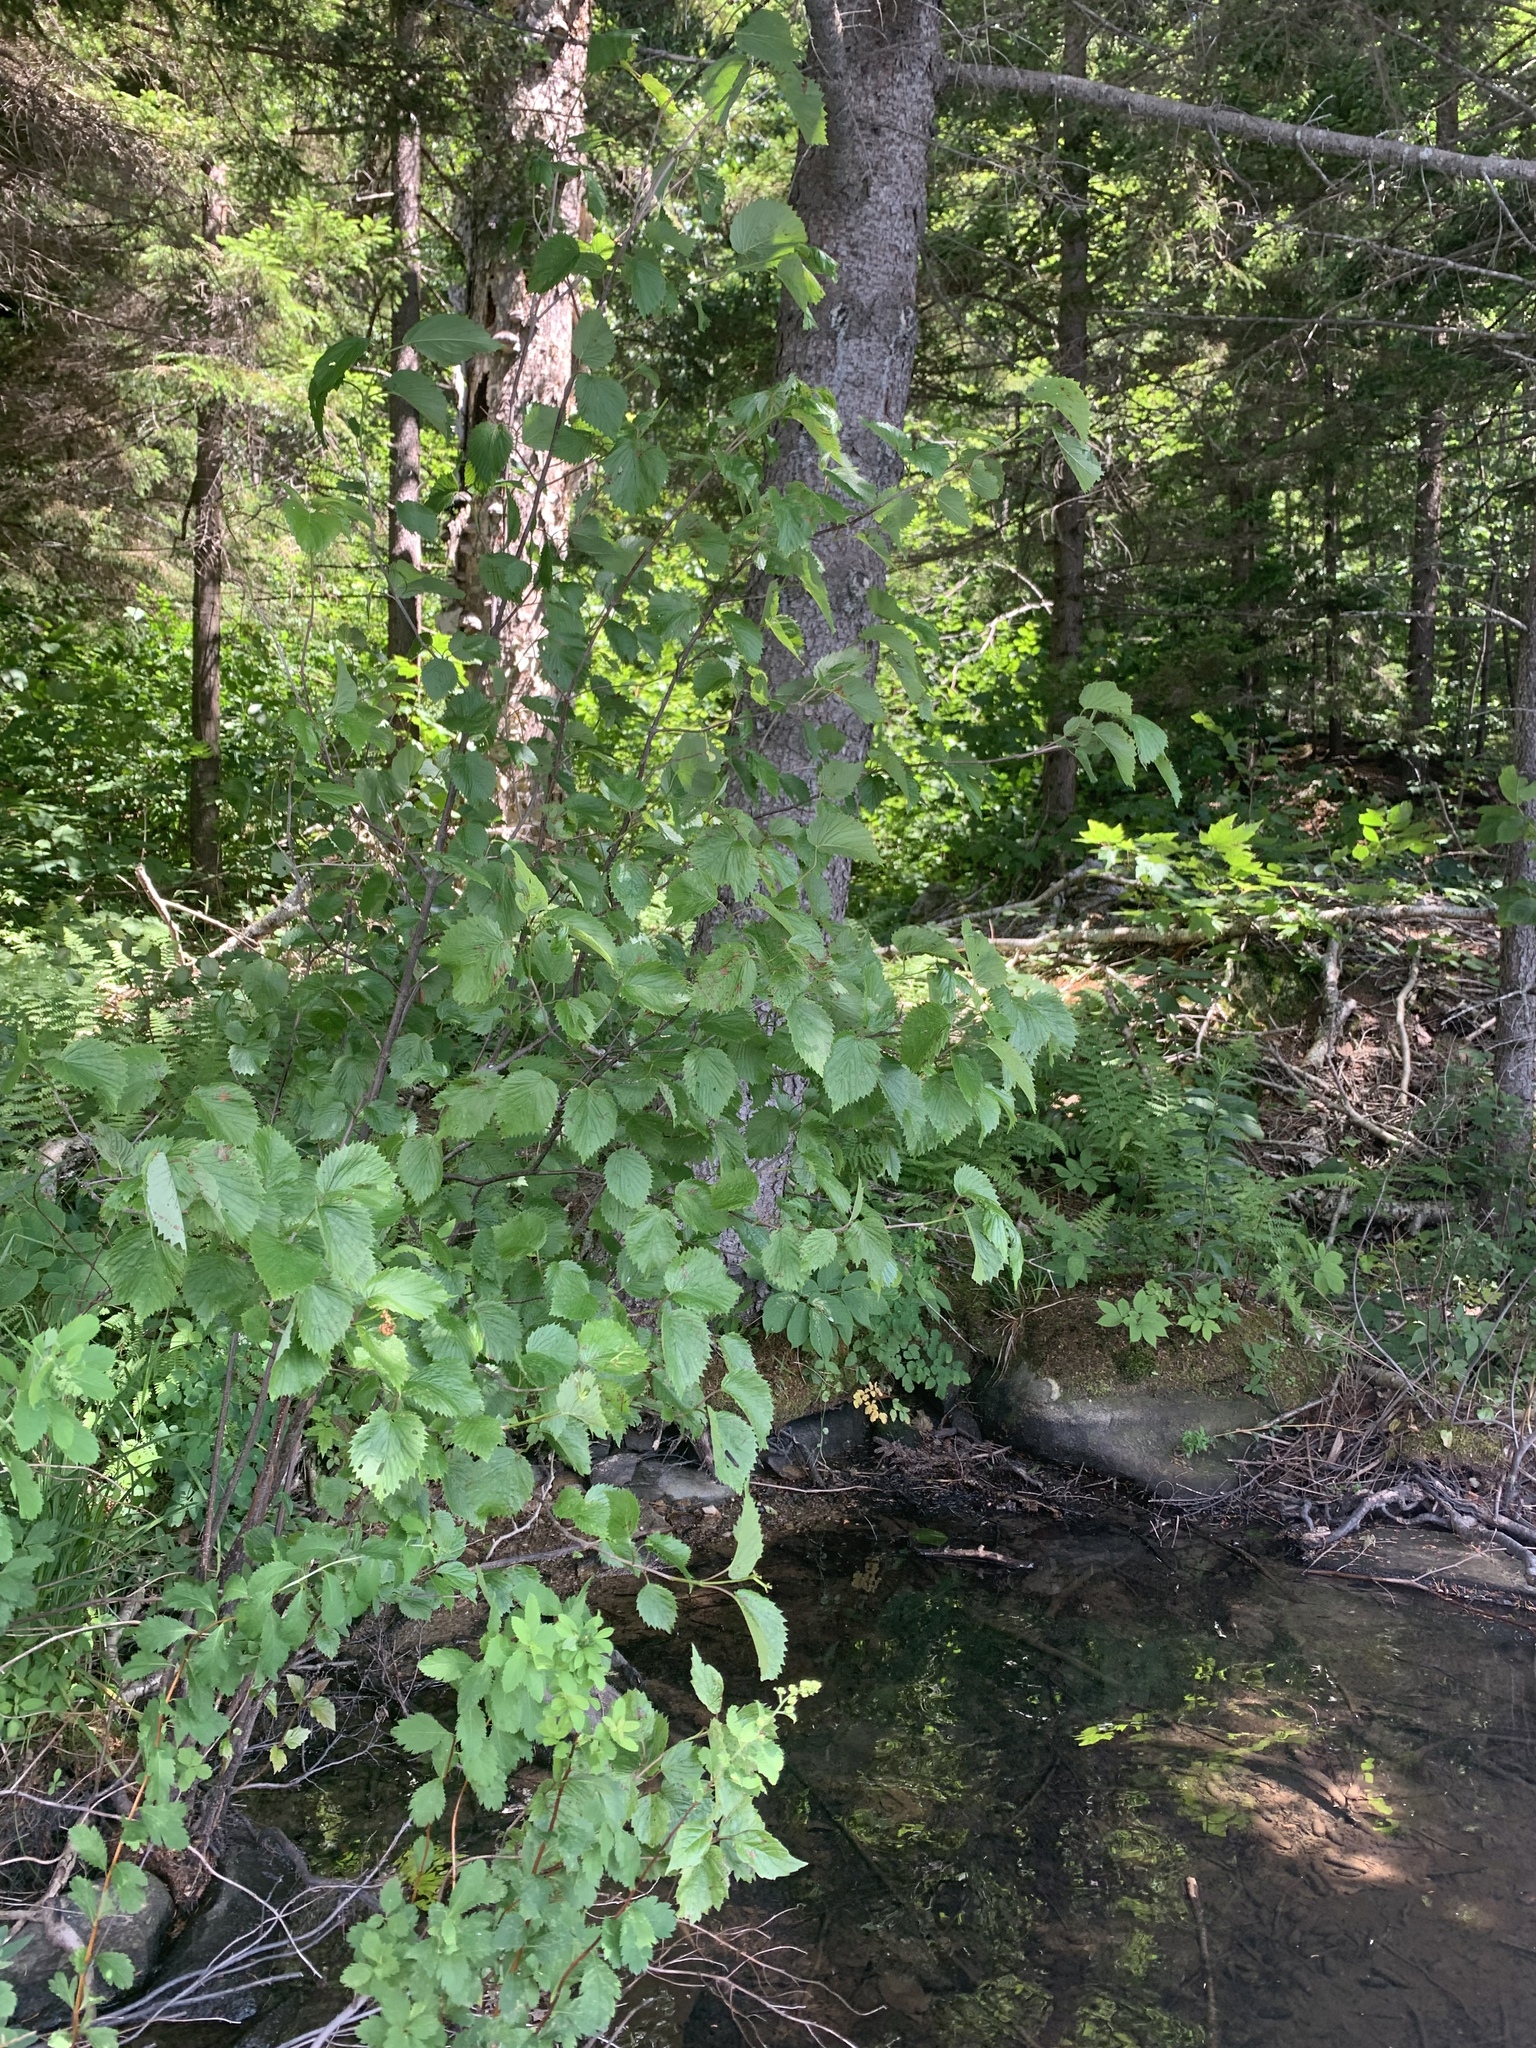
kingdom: Plantae
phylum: Tracheophyta
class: Magnoliopsida
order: Dipsacales
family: Viburnaceae
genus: Viburnum
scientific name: Viburnum dentatum
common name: Arrow-wood
